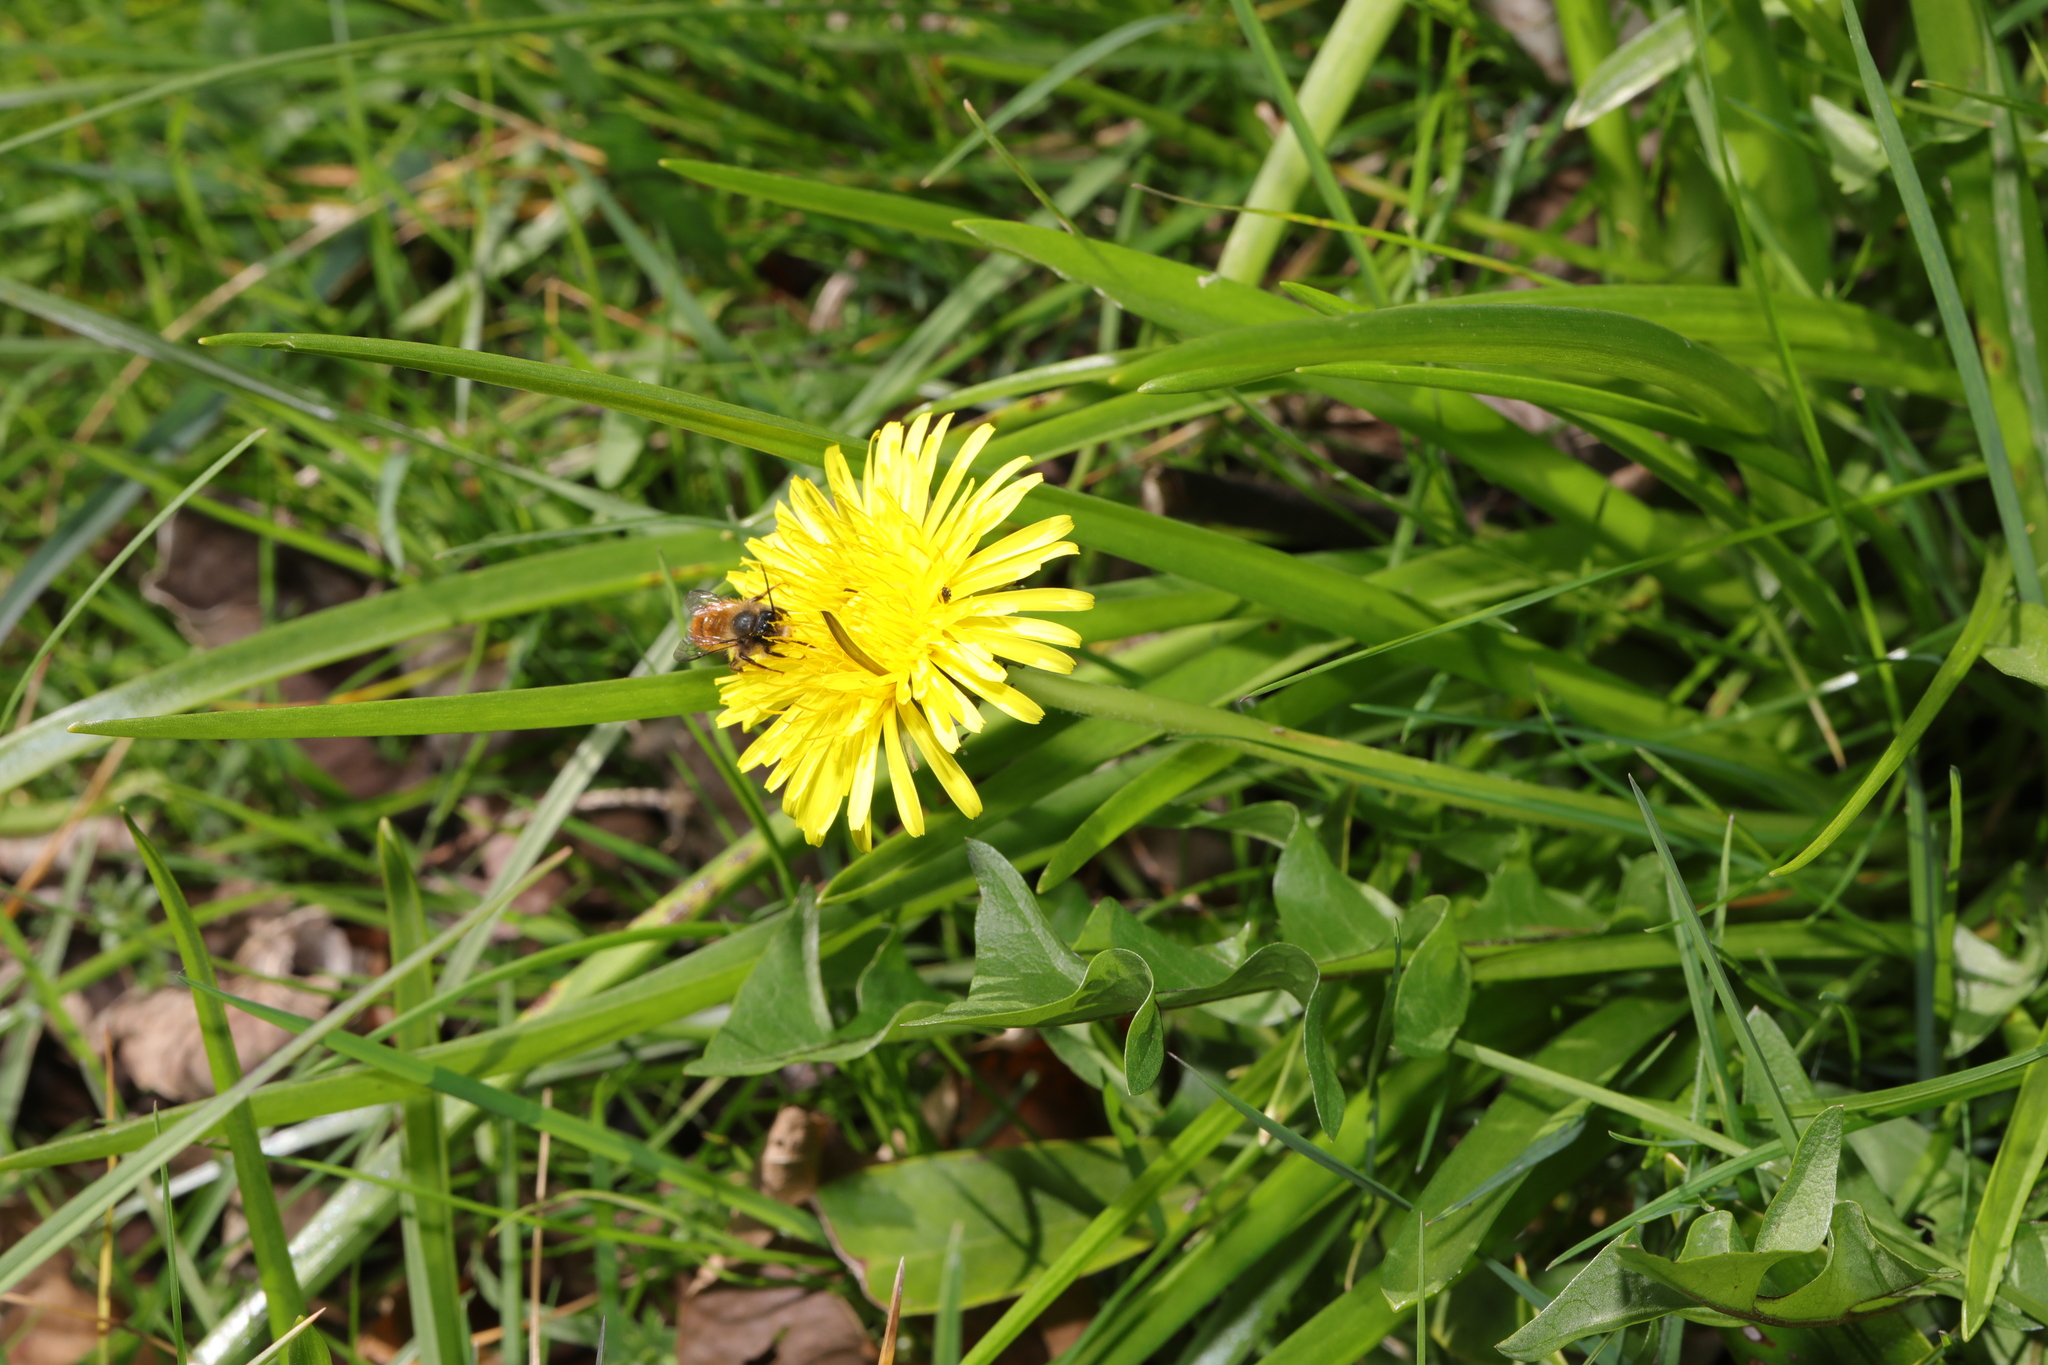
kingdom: Plantae
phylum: Tracheophyta
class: Magnoliopsida
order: Asterales
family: Asteraceae
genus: Taraxacum
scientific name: Taraxacum officinale
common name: Common dandelion
